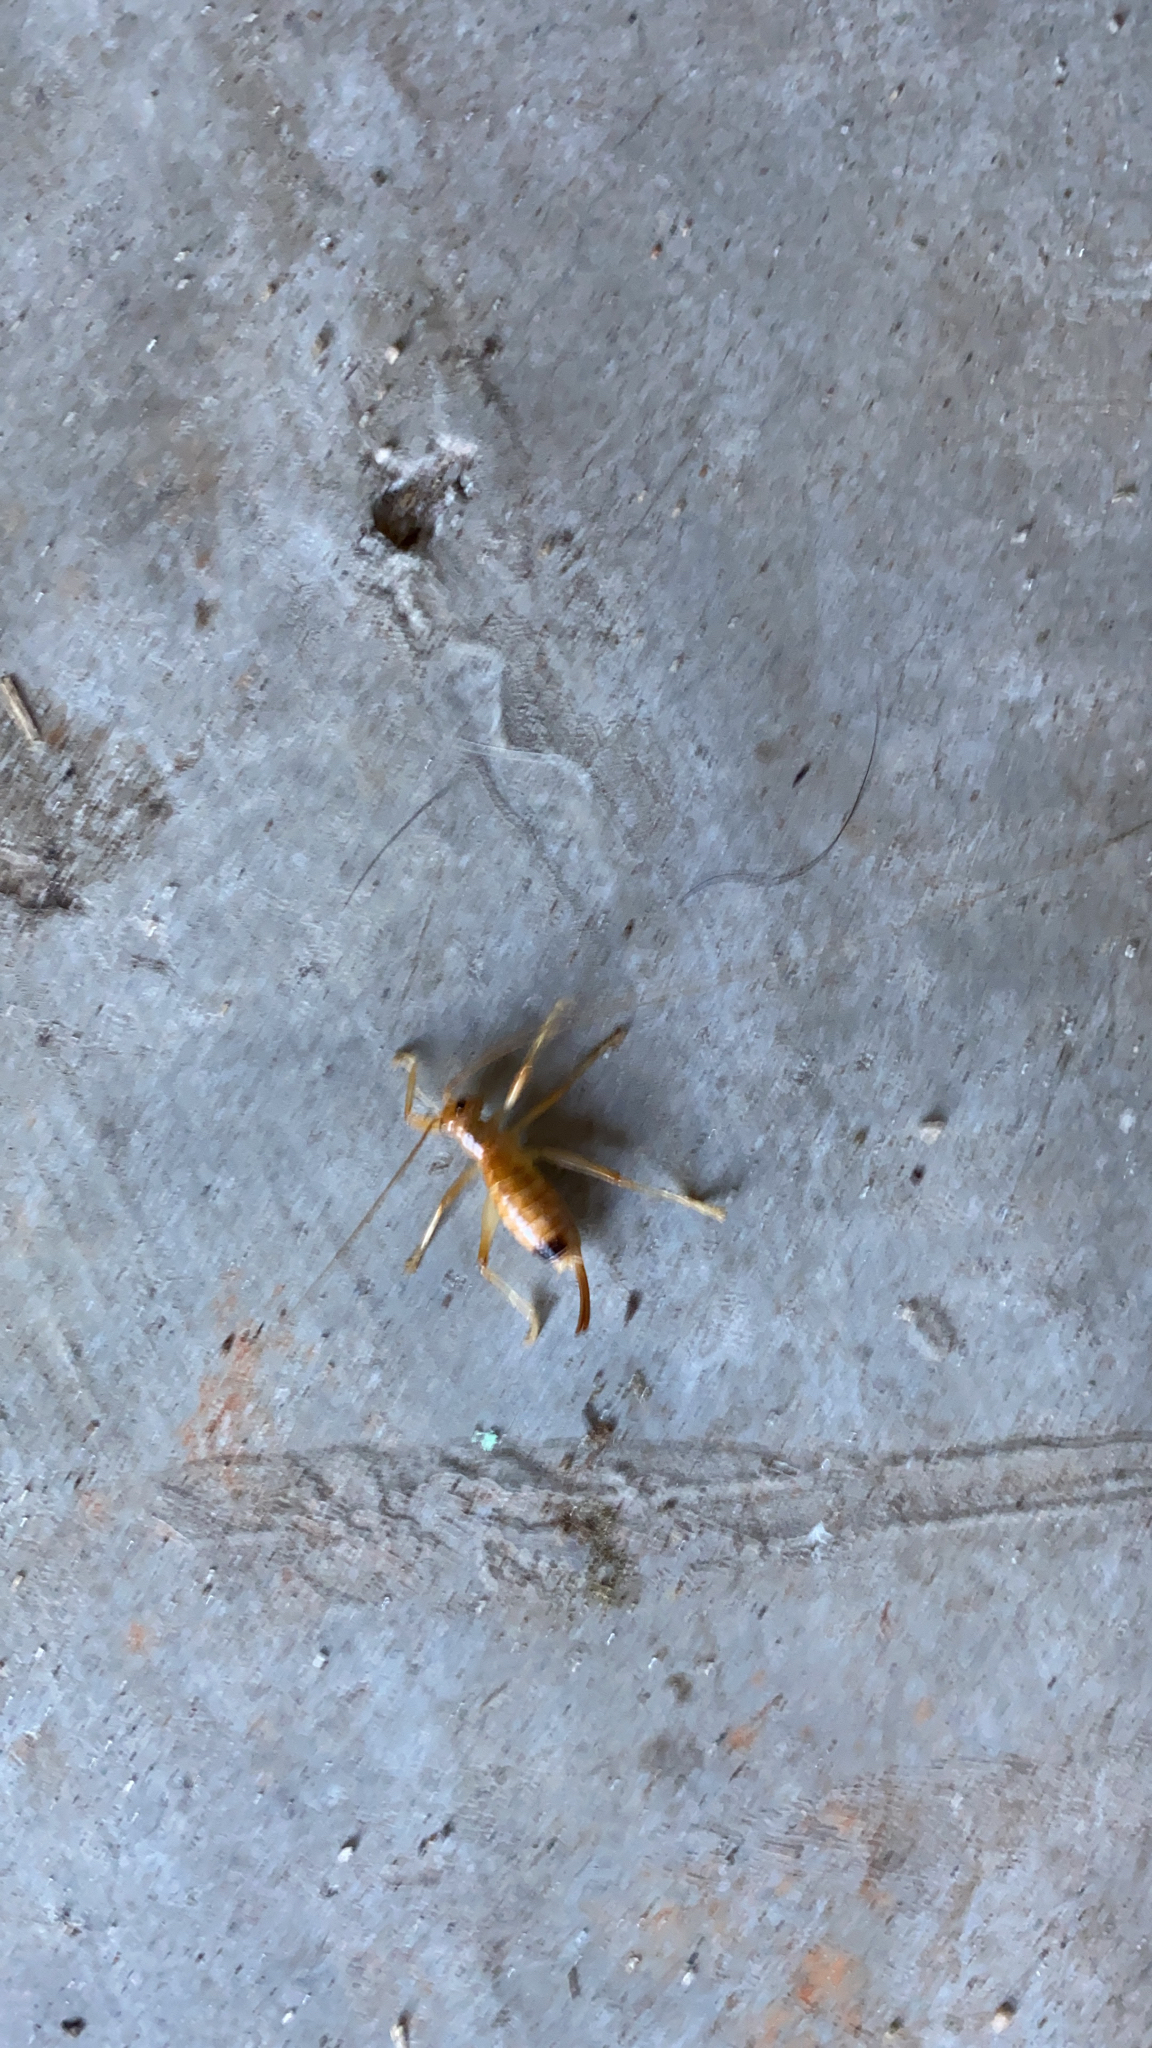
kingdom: Animalia
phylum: Arthropoda
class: Insecta
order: Orthoptera
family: Gryllacrididae
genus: Camptonotus
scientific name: Camptonotus carolinensis
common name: Carolina leaf-roller
